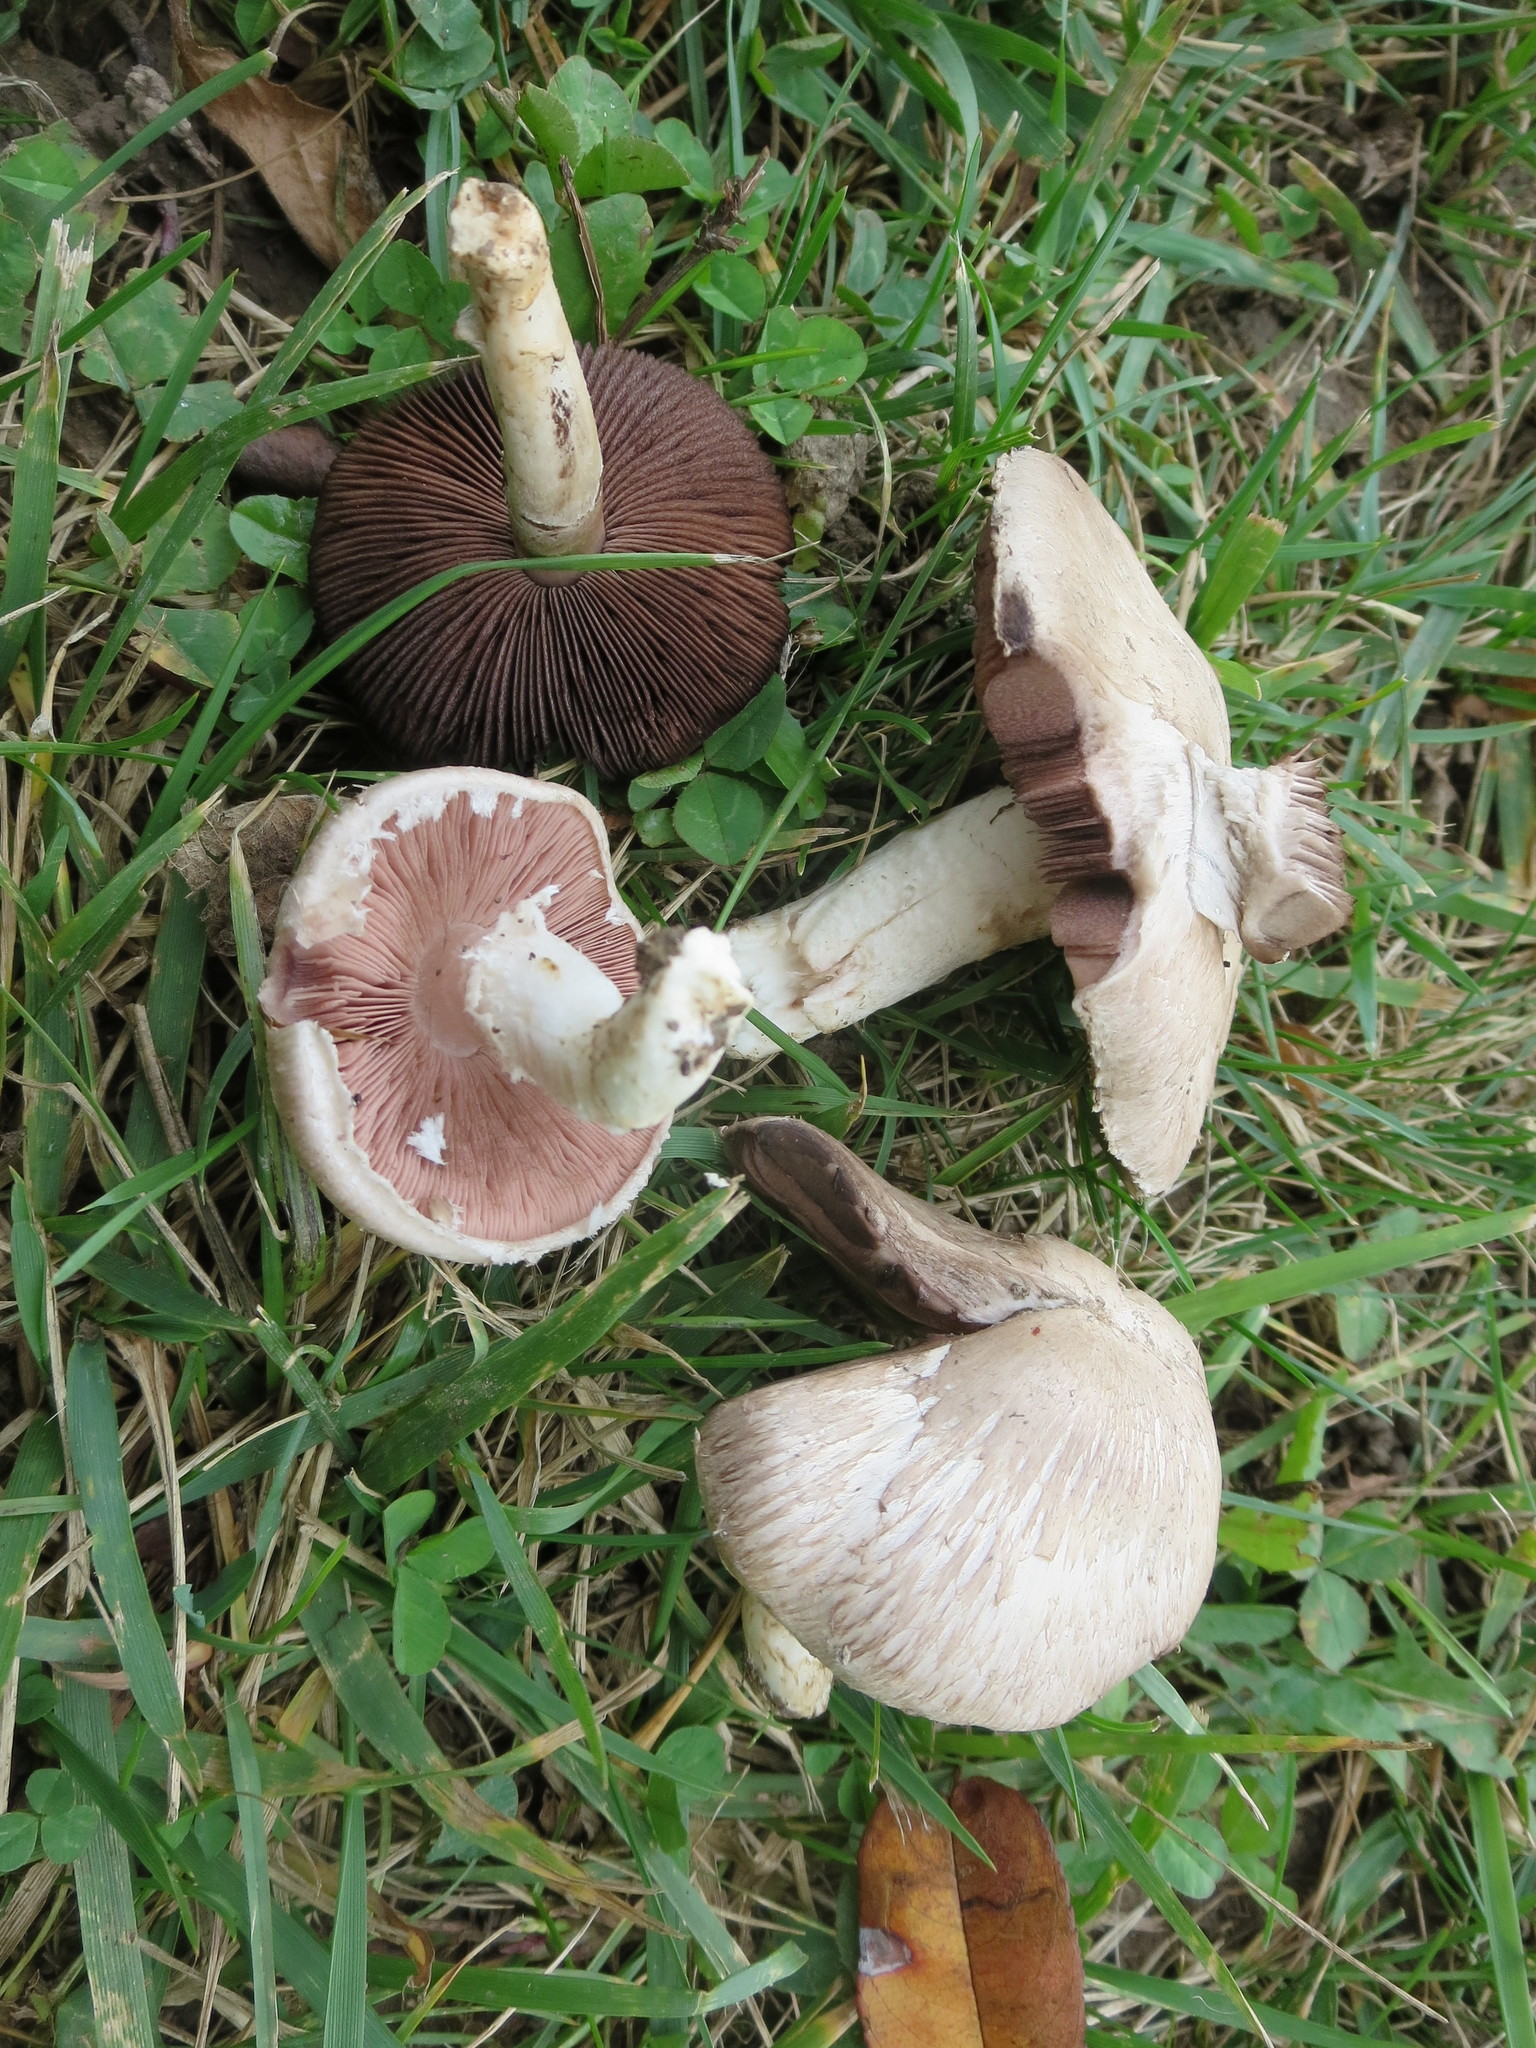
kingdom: Fungi
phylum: Basidiomycota
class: Agaricomycetes
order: Agaricales
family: Agaricaceae
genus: Agaricus
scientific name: Agaricus campestris
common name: Field mushroom
